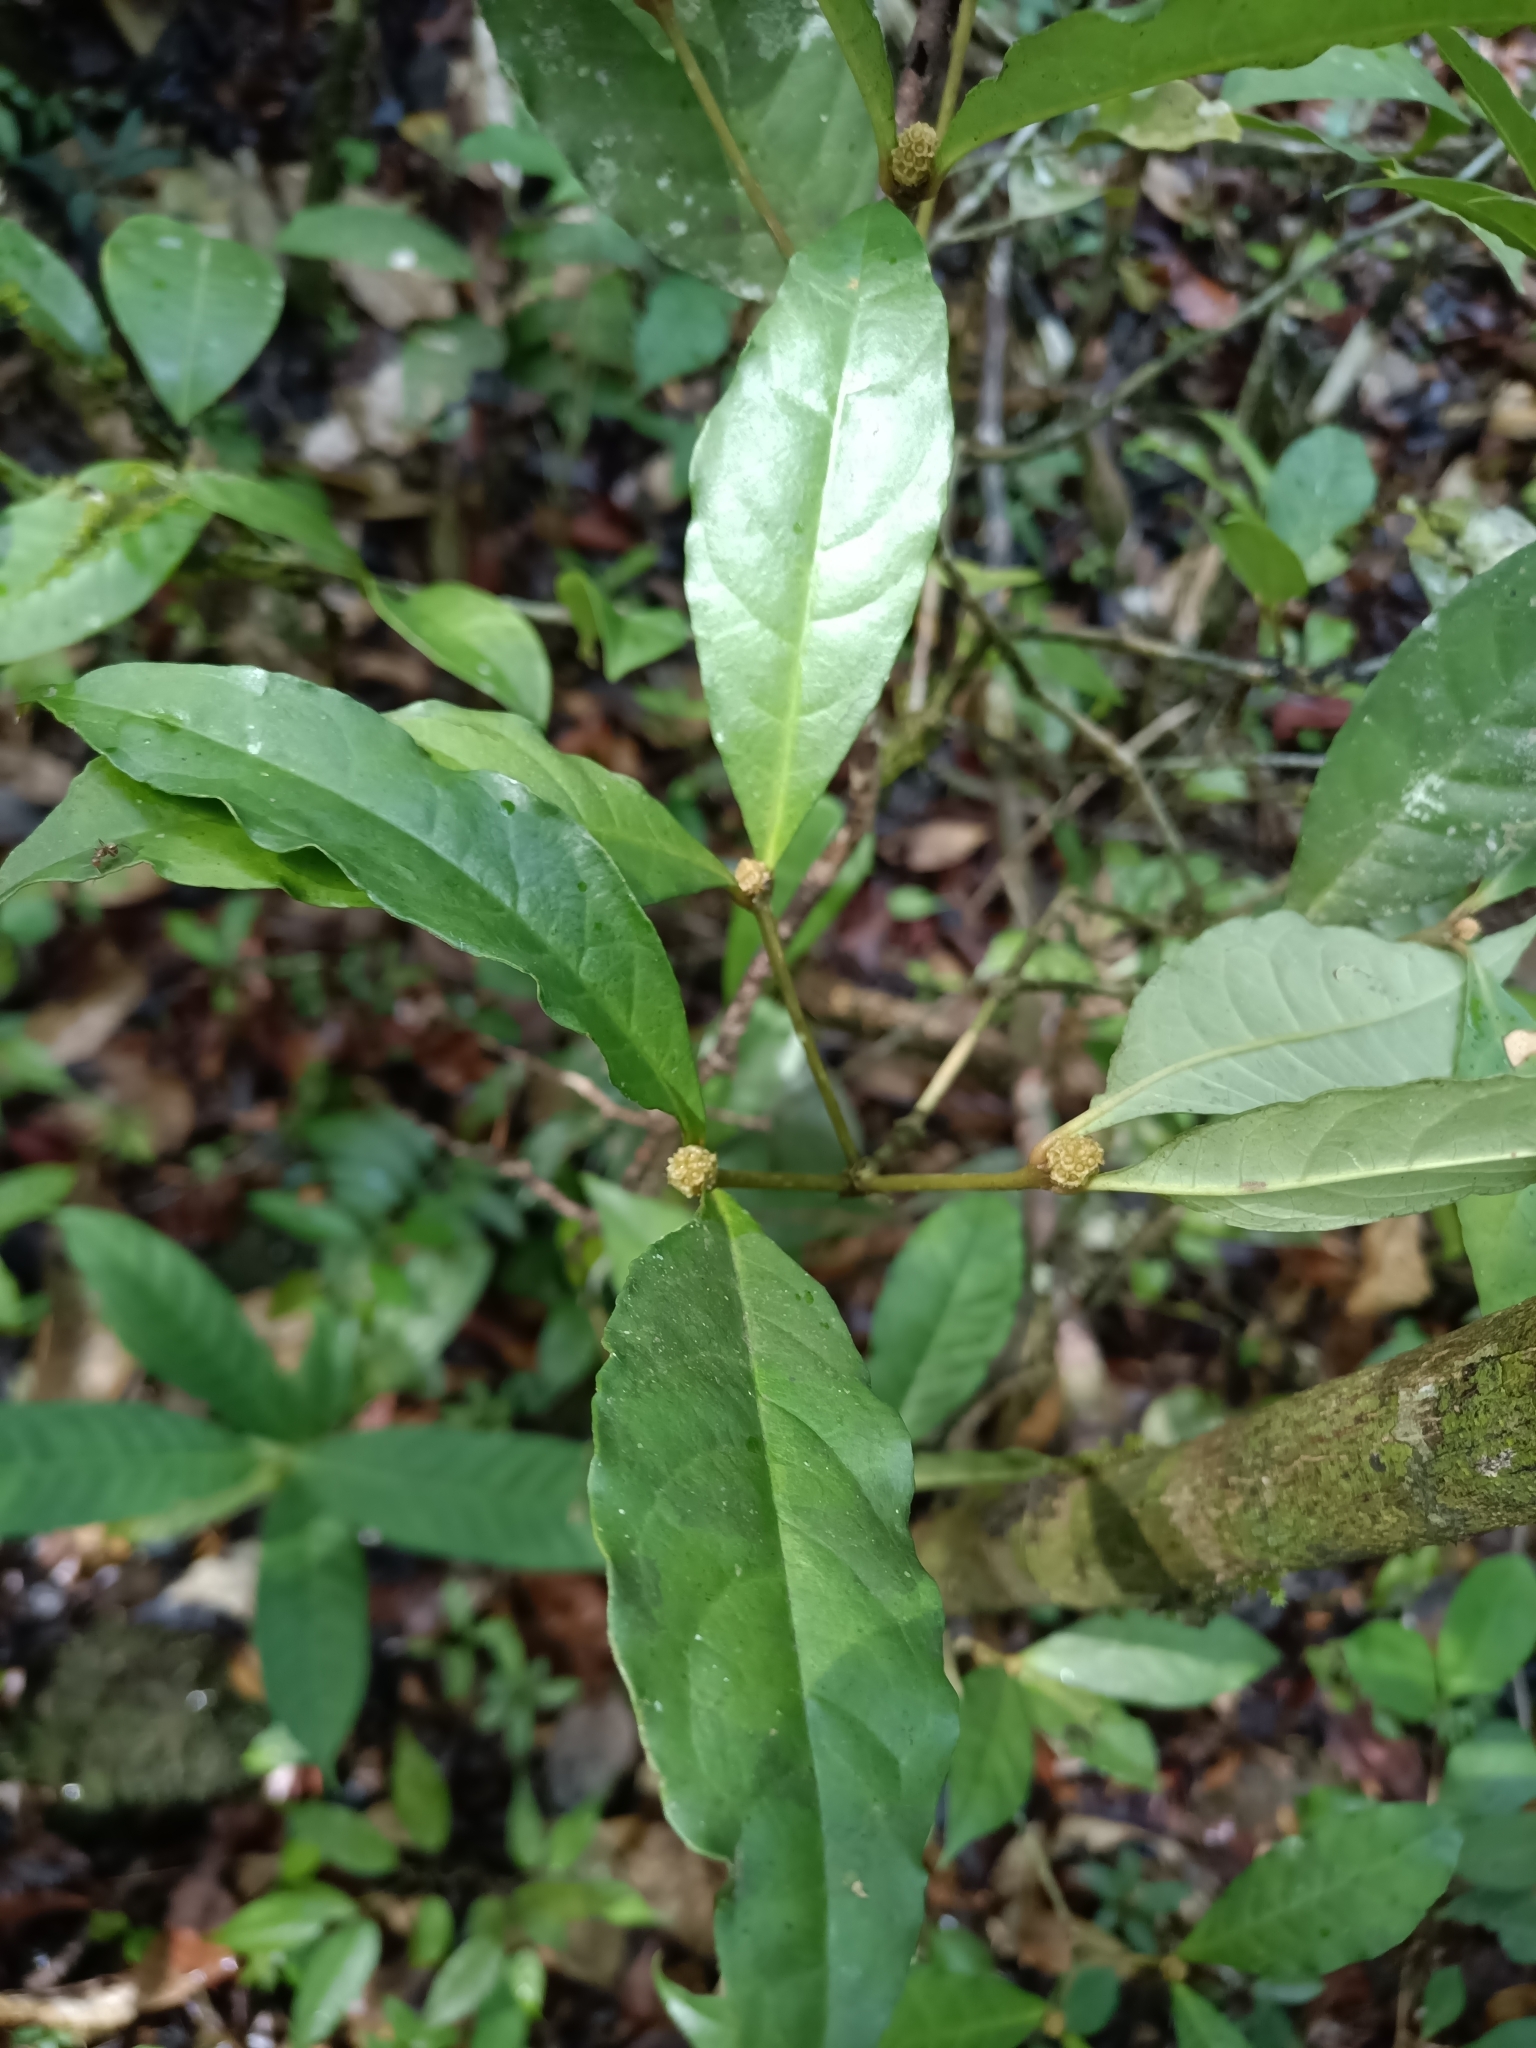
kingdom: Plantae
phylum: Tracheophyta
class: Magnoliopsida
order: Gentianales
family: Rubiaceae
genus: Eumachia
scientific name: Eumachia guianensis
